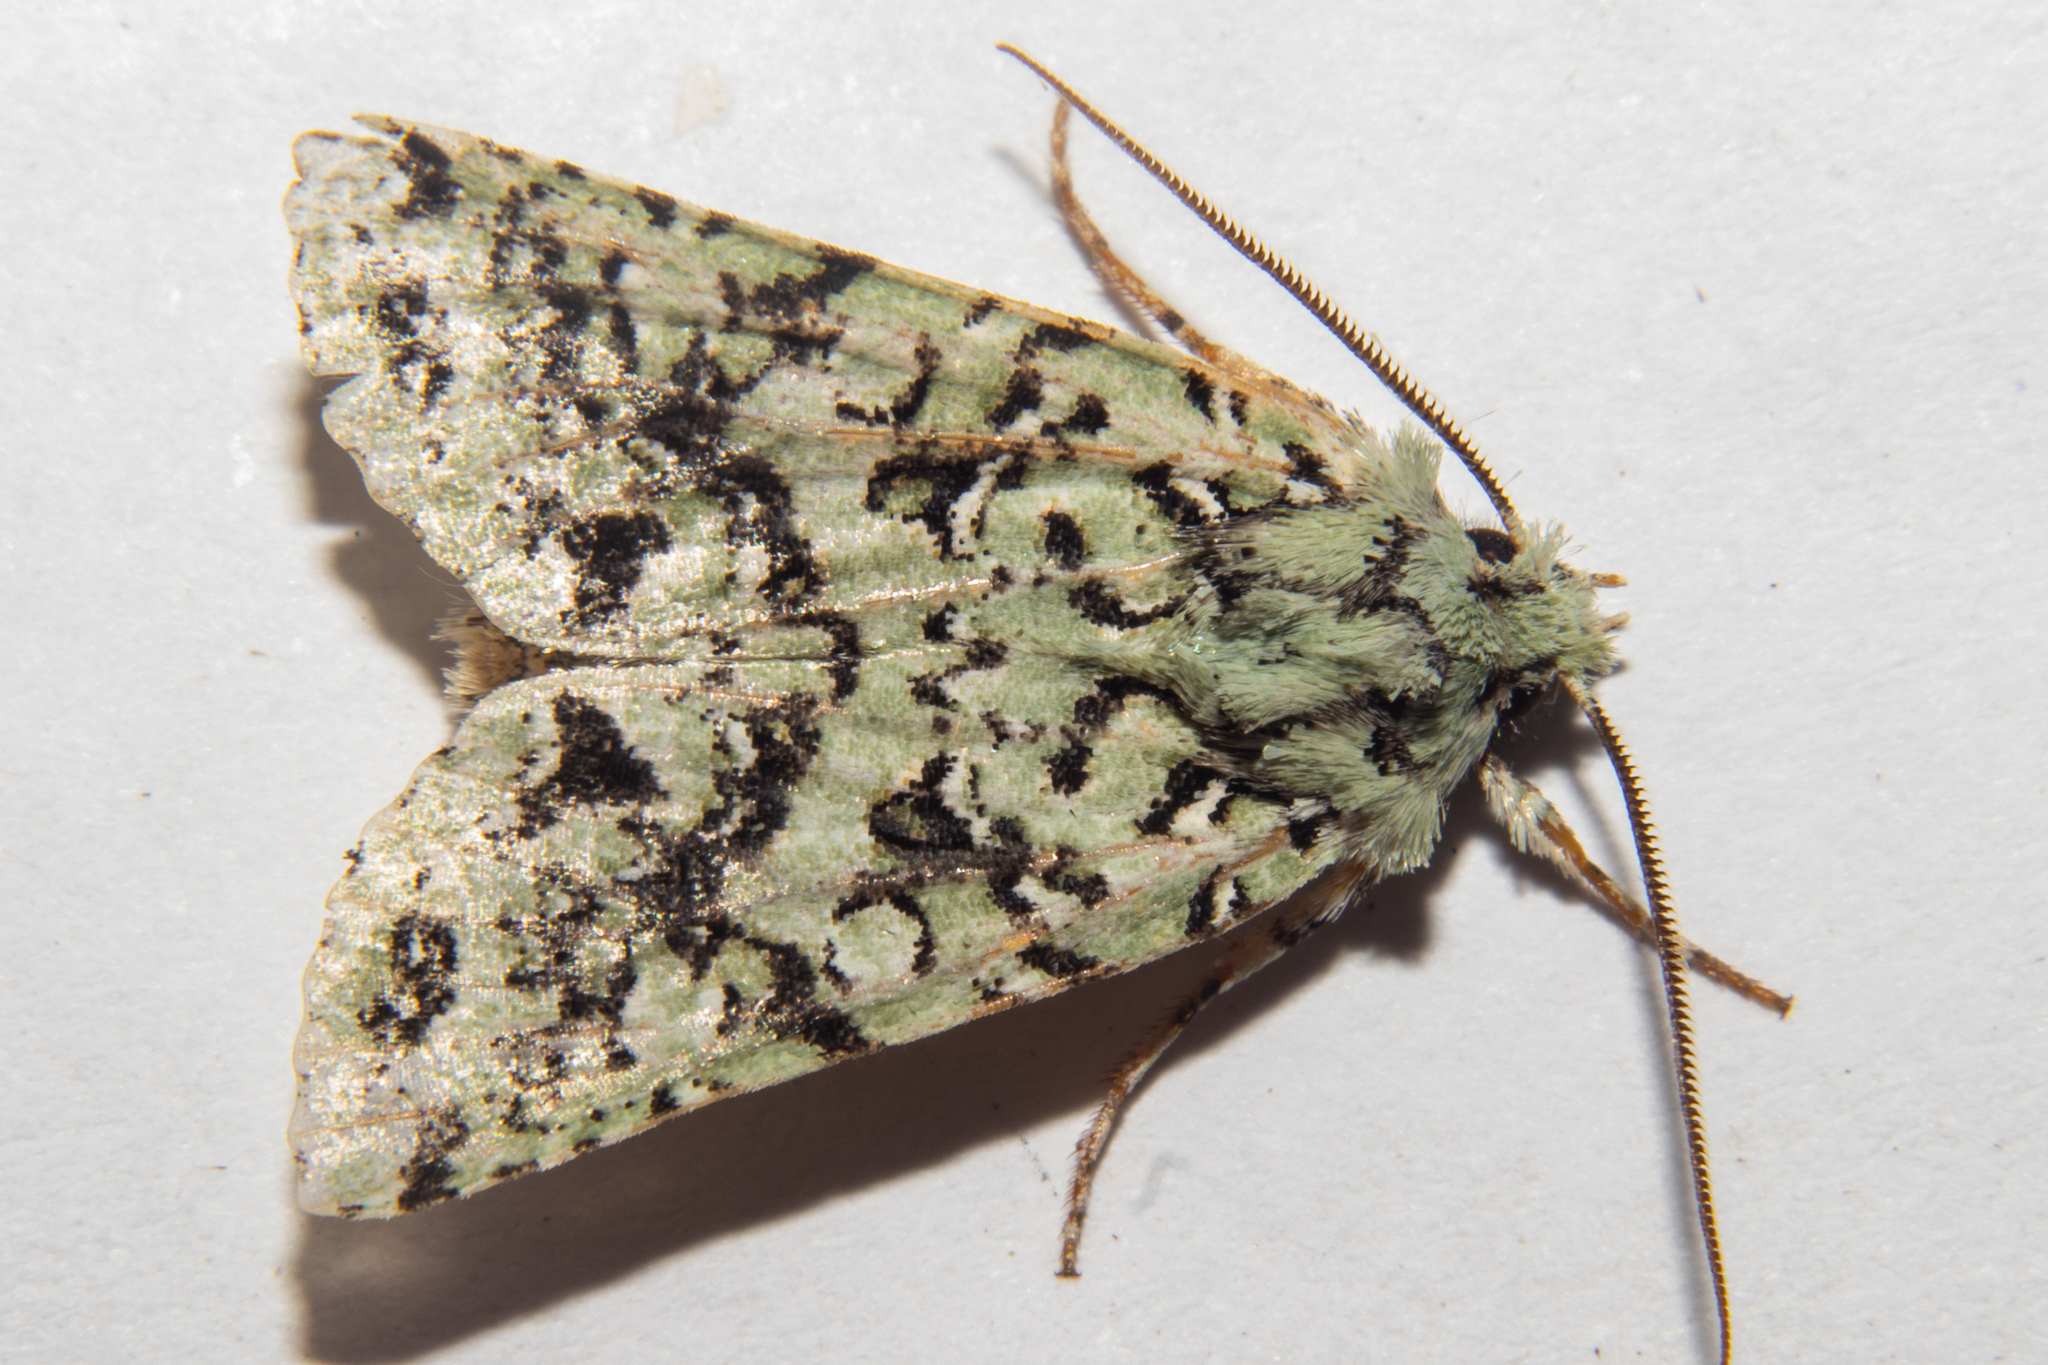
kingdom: Animalia
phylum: Arthropoda
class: Insecta
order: Lepidoptera
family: Noctuidae
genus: Meterana
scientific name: Meterana
